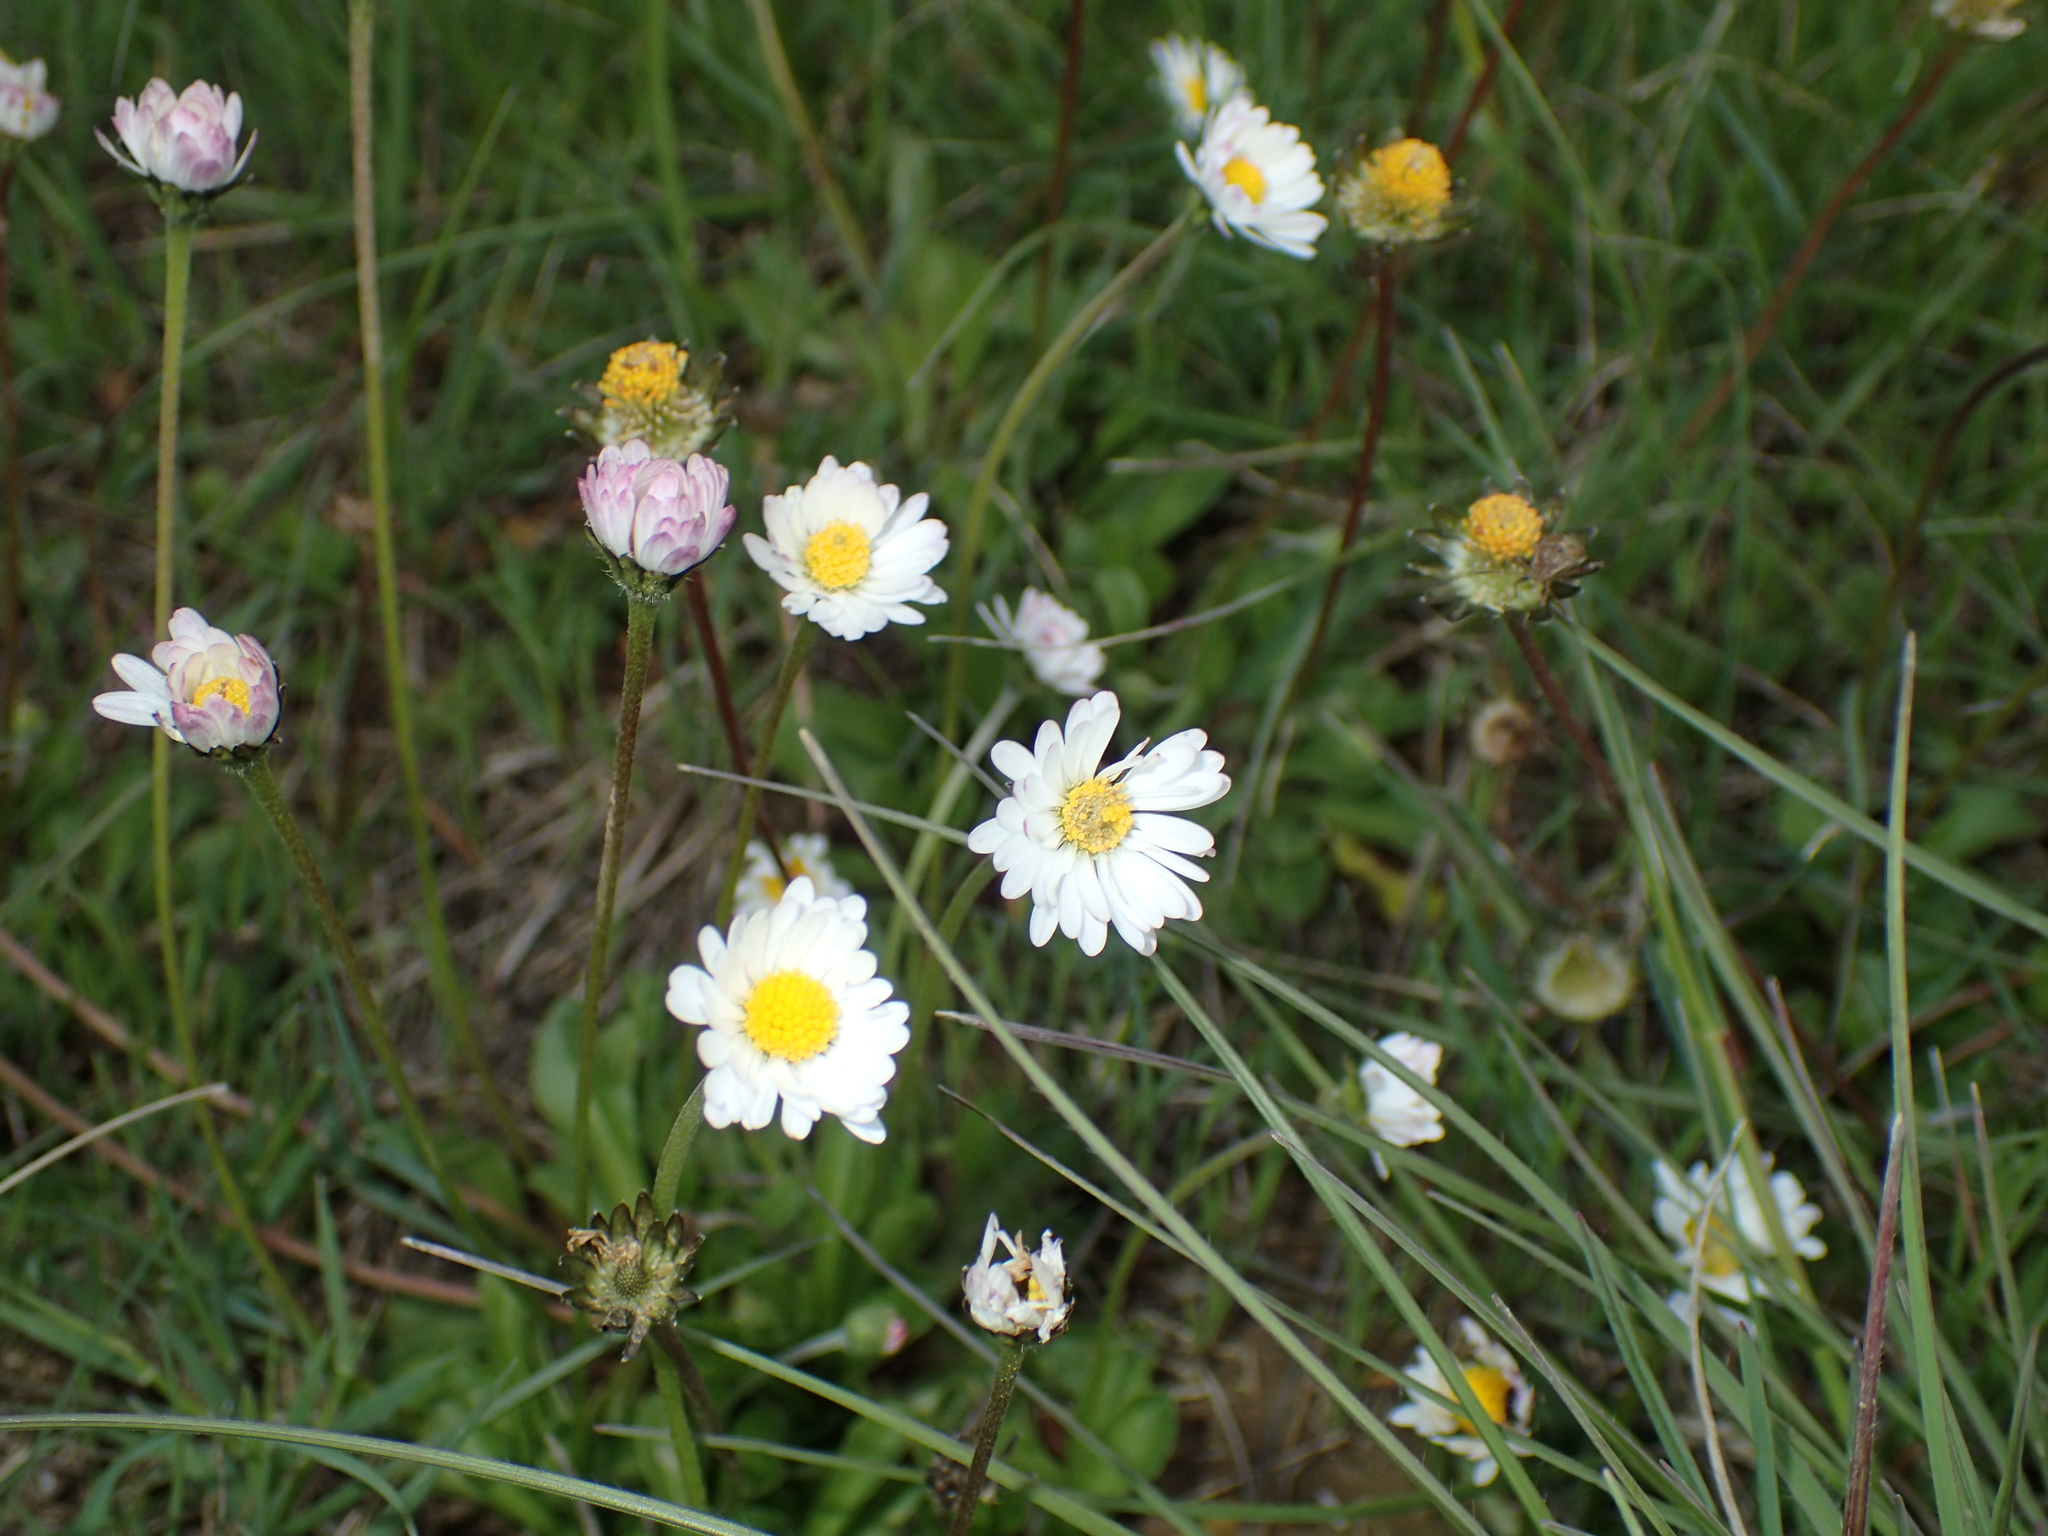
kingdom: Plantae
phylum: Tracheophyta
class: Magnoliopsida
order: Asterales
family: Asteraceae
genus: Bellis
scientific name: Bellis perennis
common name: Lawndaisy
